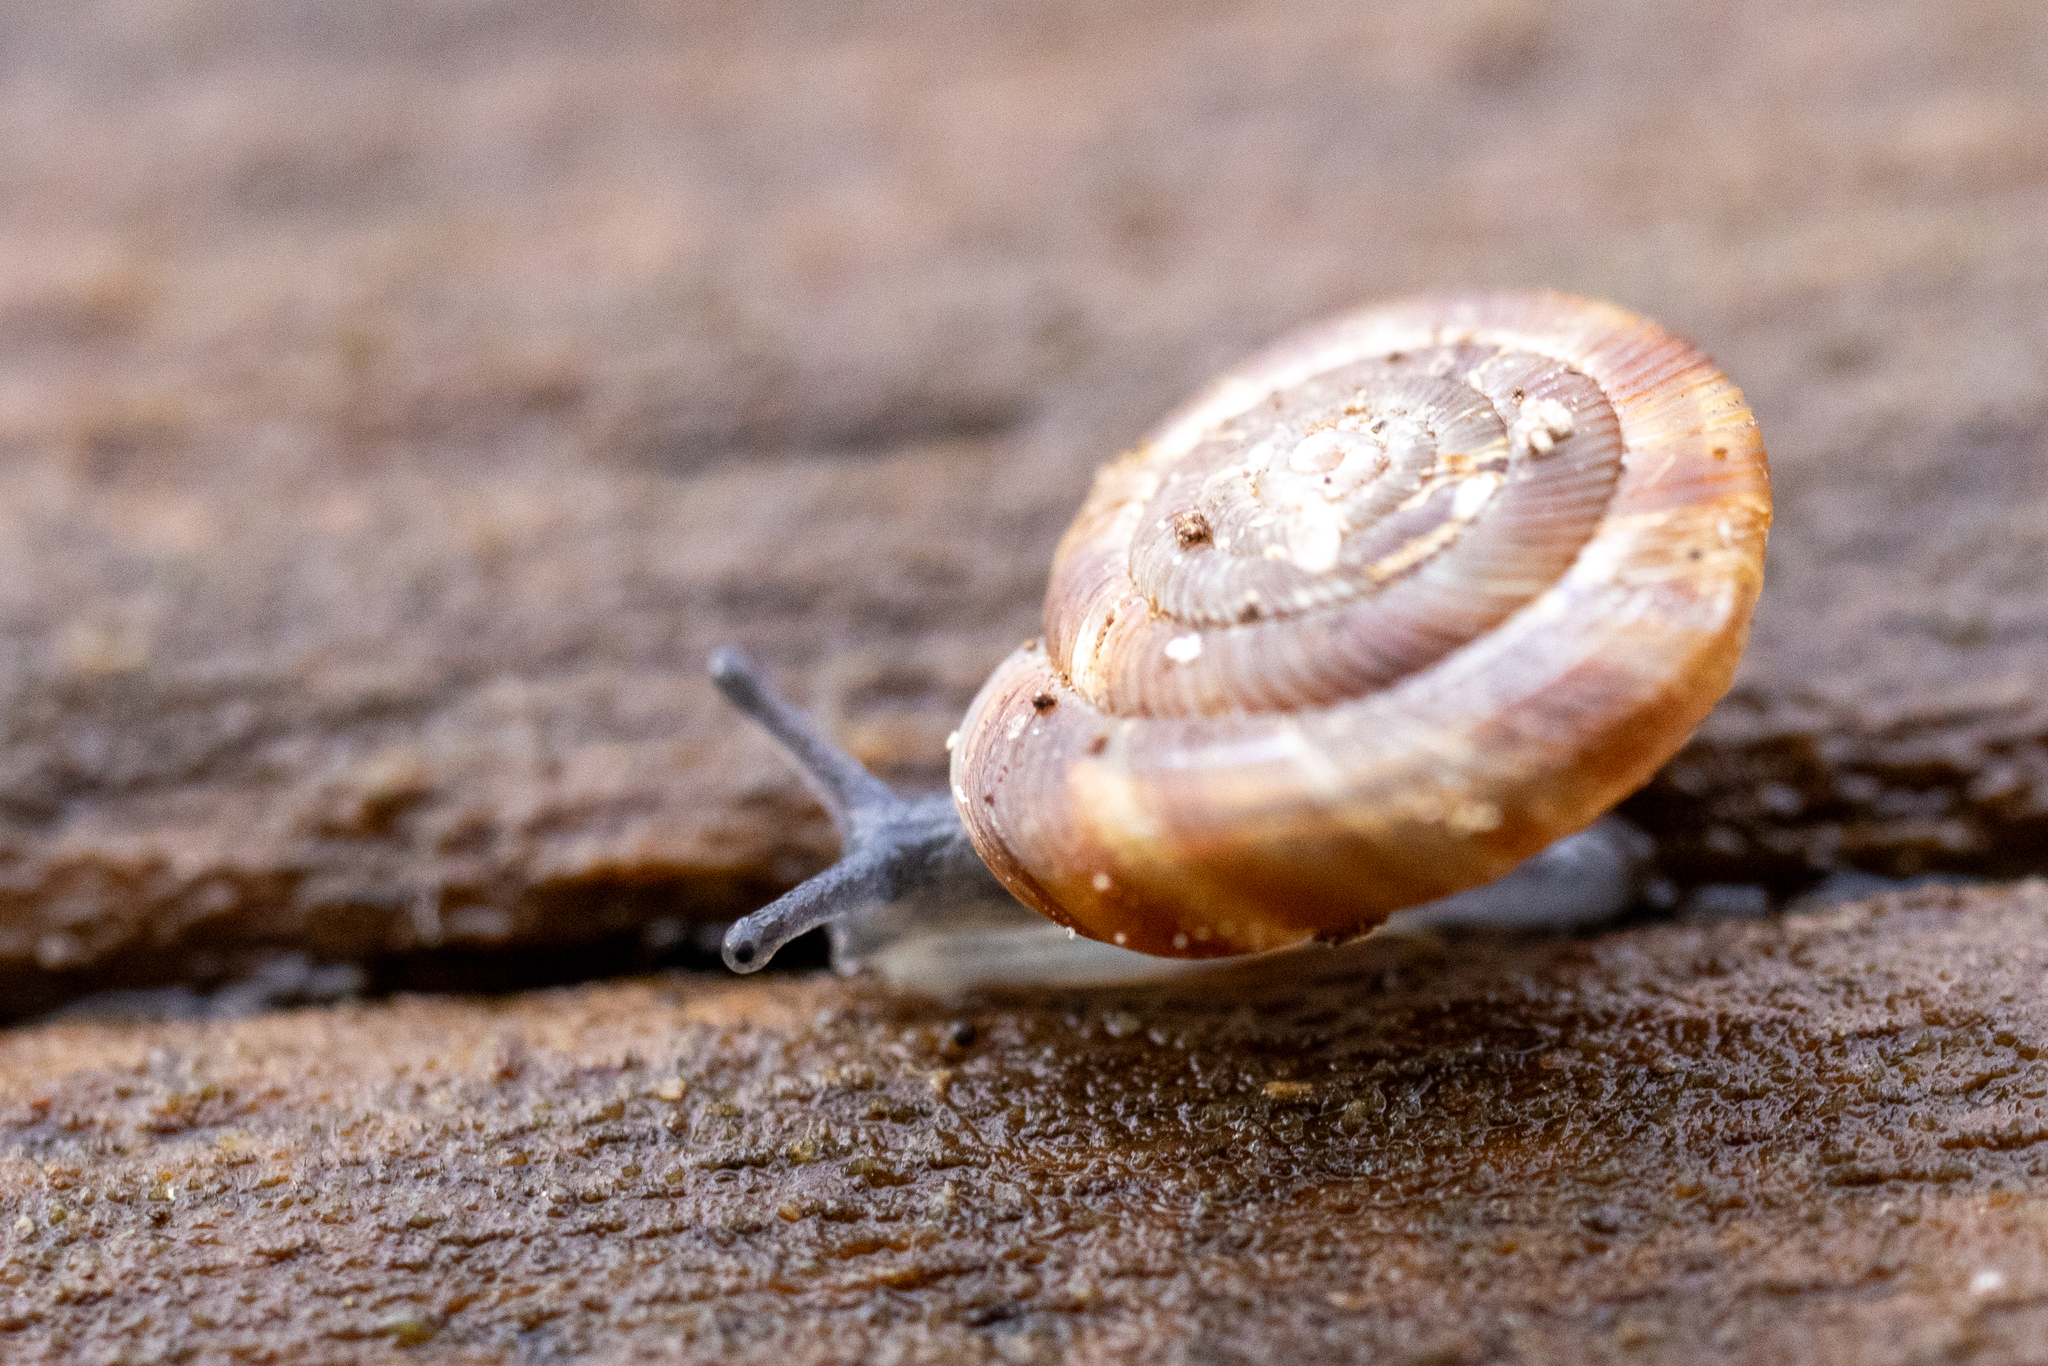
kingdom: Animalia
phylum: Mollusca
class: Gastropoda
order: Stylommatophora
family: Discidae
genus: Discus
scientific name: Discus rotundatus
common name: Rounded snail
